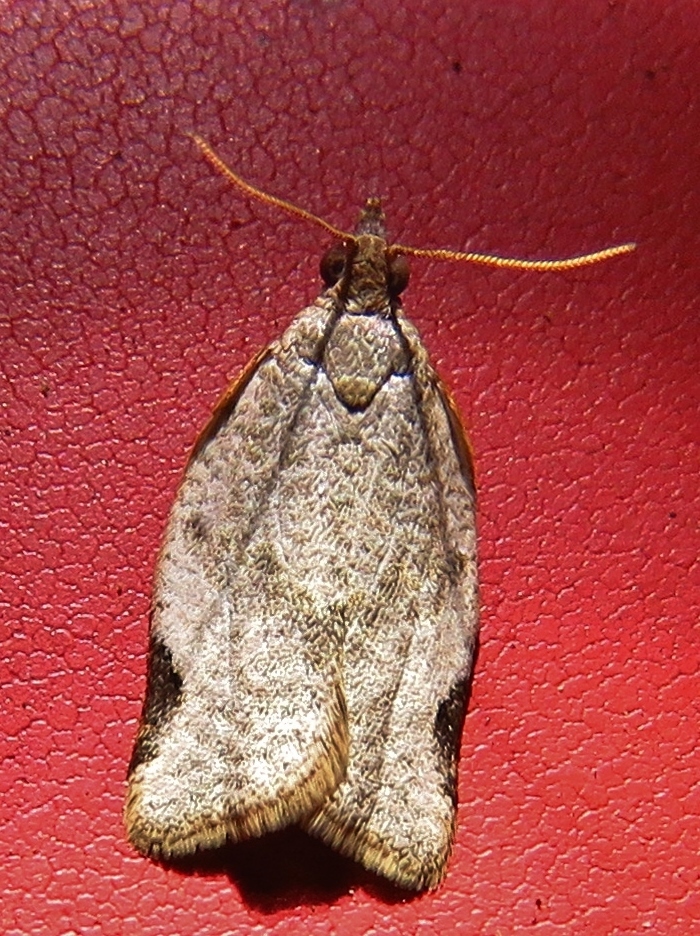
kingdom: Animalia
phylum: Arthropoda
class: Insecta
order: Lepidoptera
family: Tortricidae
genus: Clepsis
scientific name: Clepsis virescana
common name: Greenish apple moth
